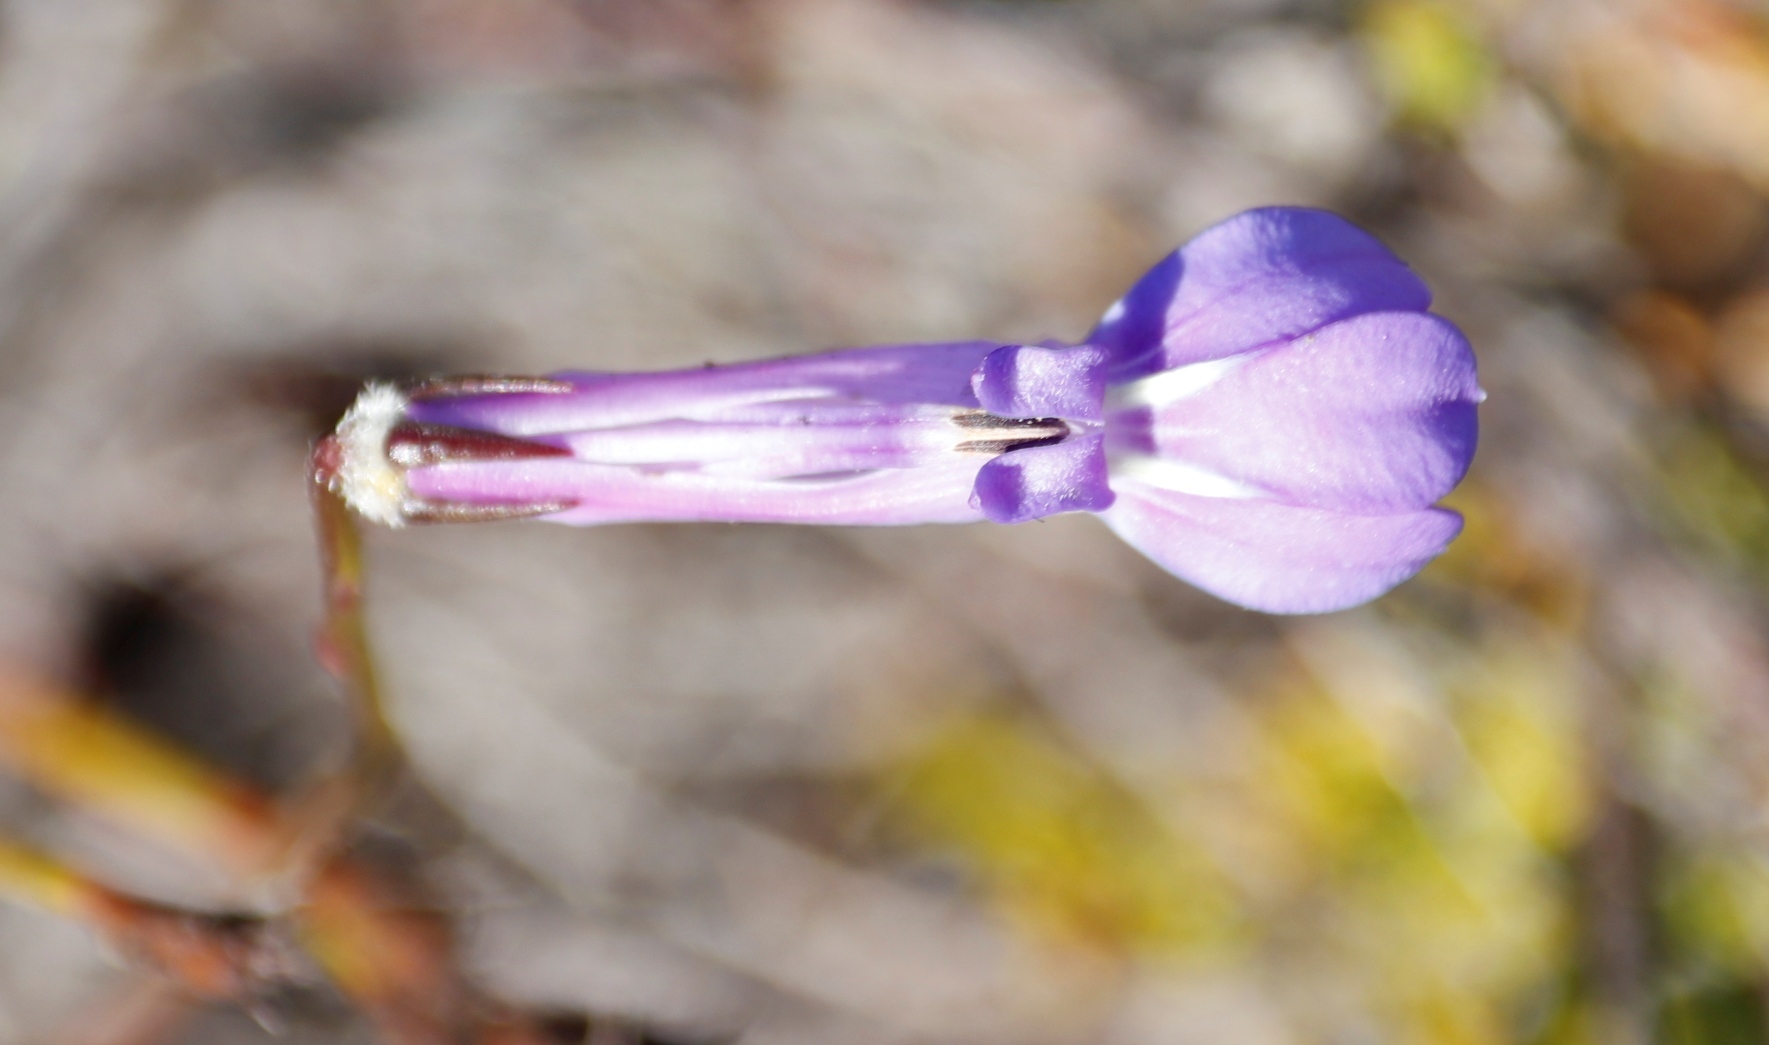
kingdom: Plantae
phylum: Tracheophyta
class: Magnoliopsida
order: Asterales
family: Campanulaceae
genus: Lobelia
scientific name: Lobelia coronopifolia
